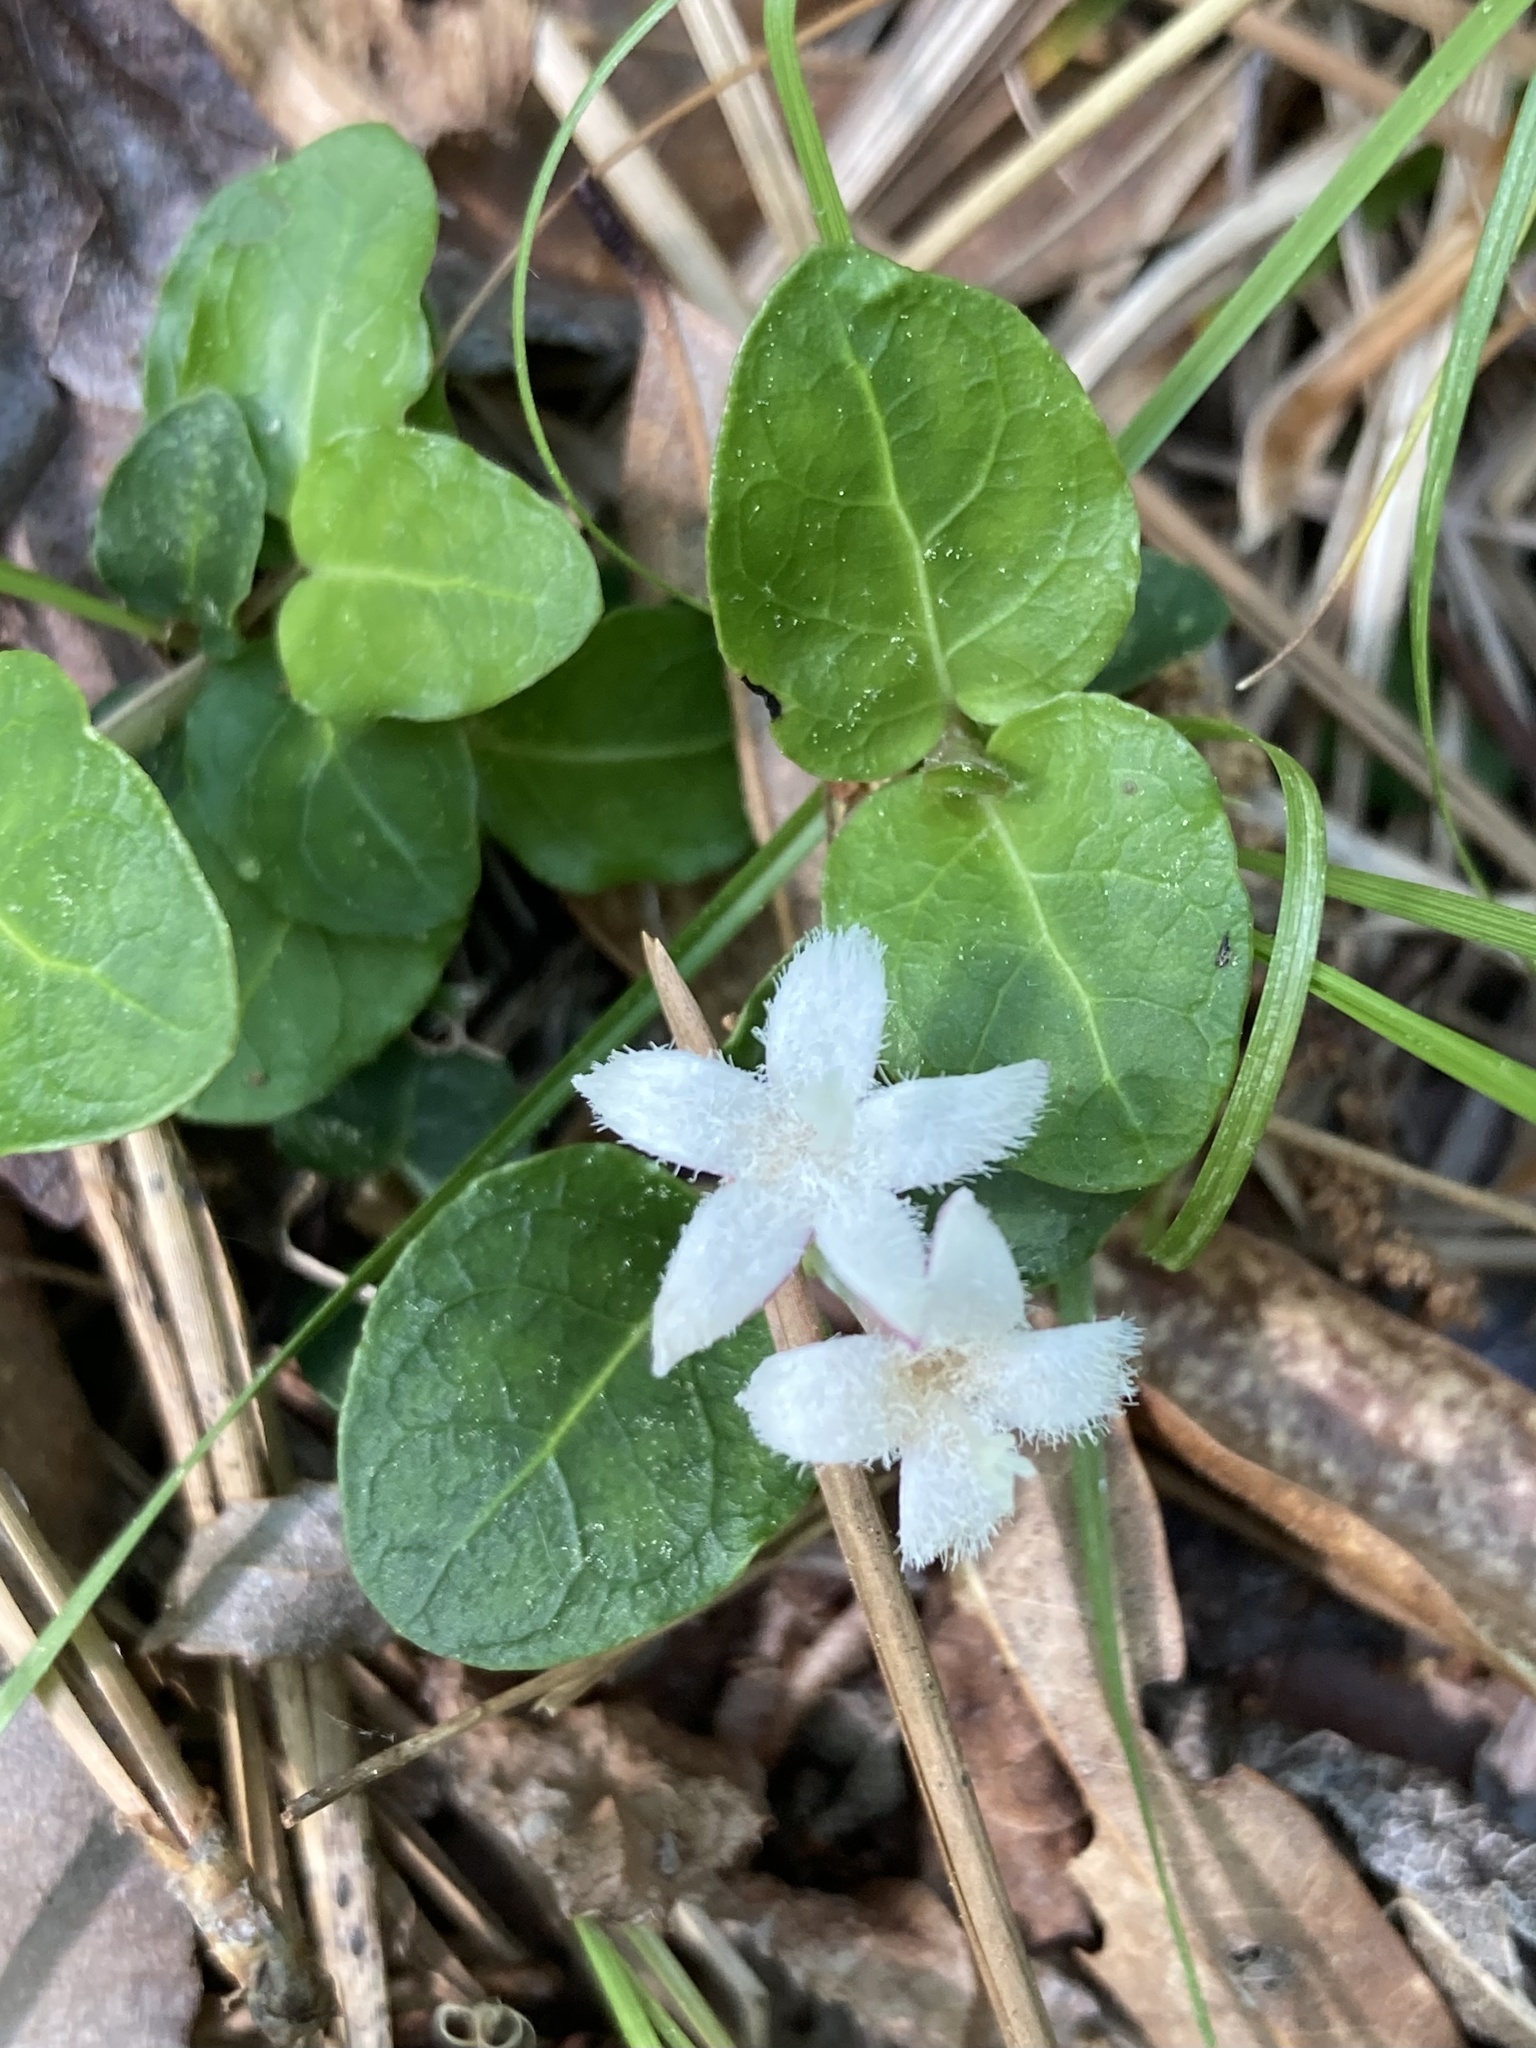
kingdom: Plantae
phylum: Tracheophyta
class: Magnoliopsida
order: Gentianales
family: Rubiaceae
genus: Mitchella
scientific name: Mitchella repens
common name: Partridge-berry
